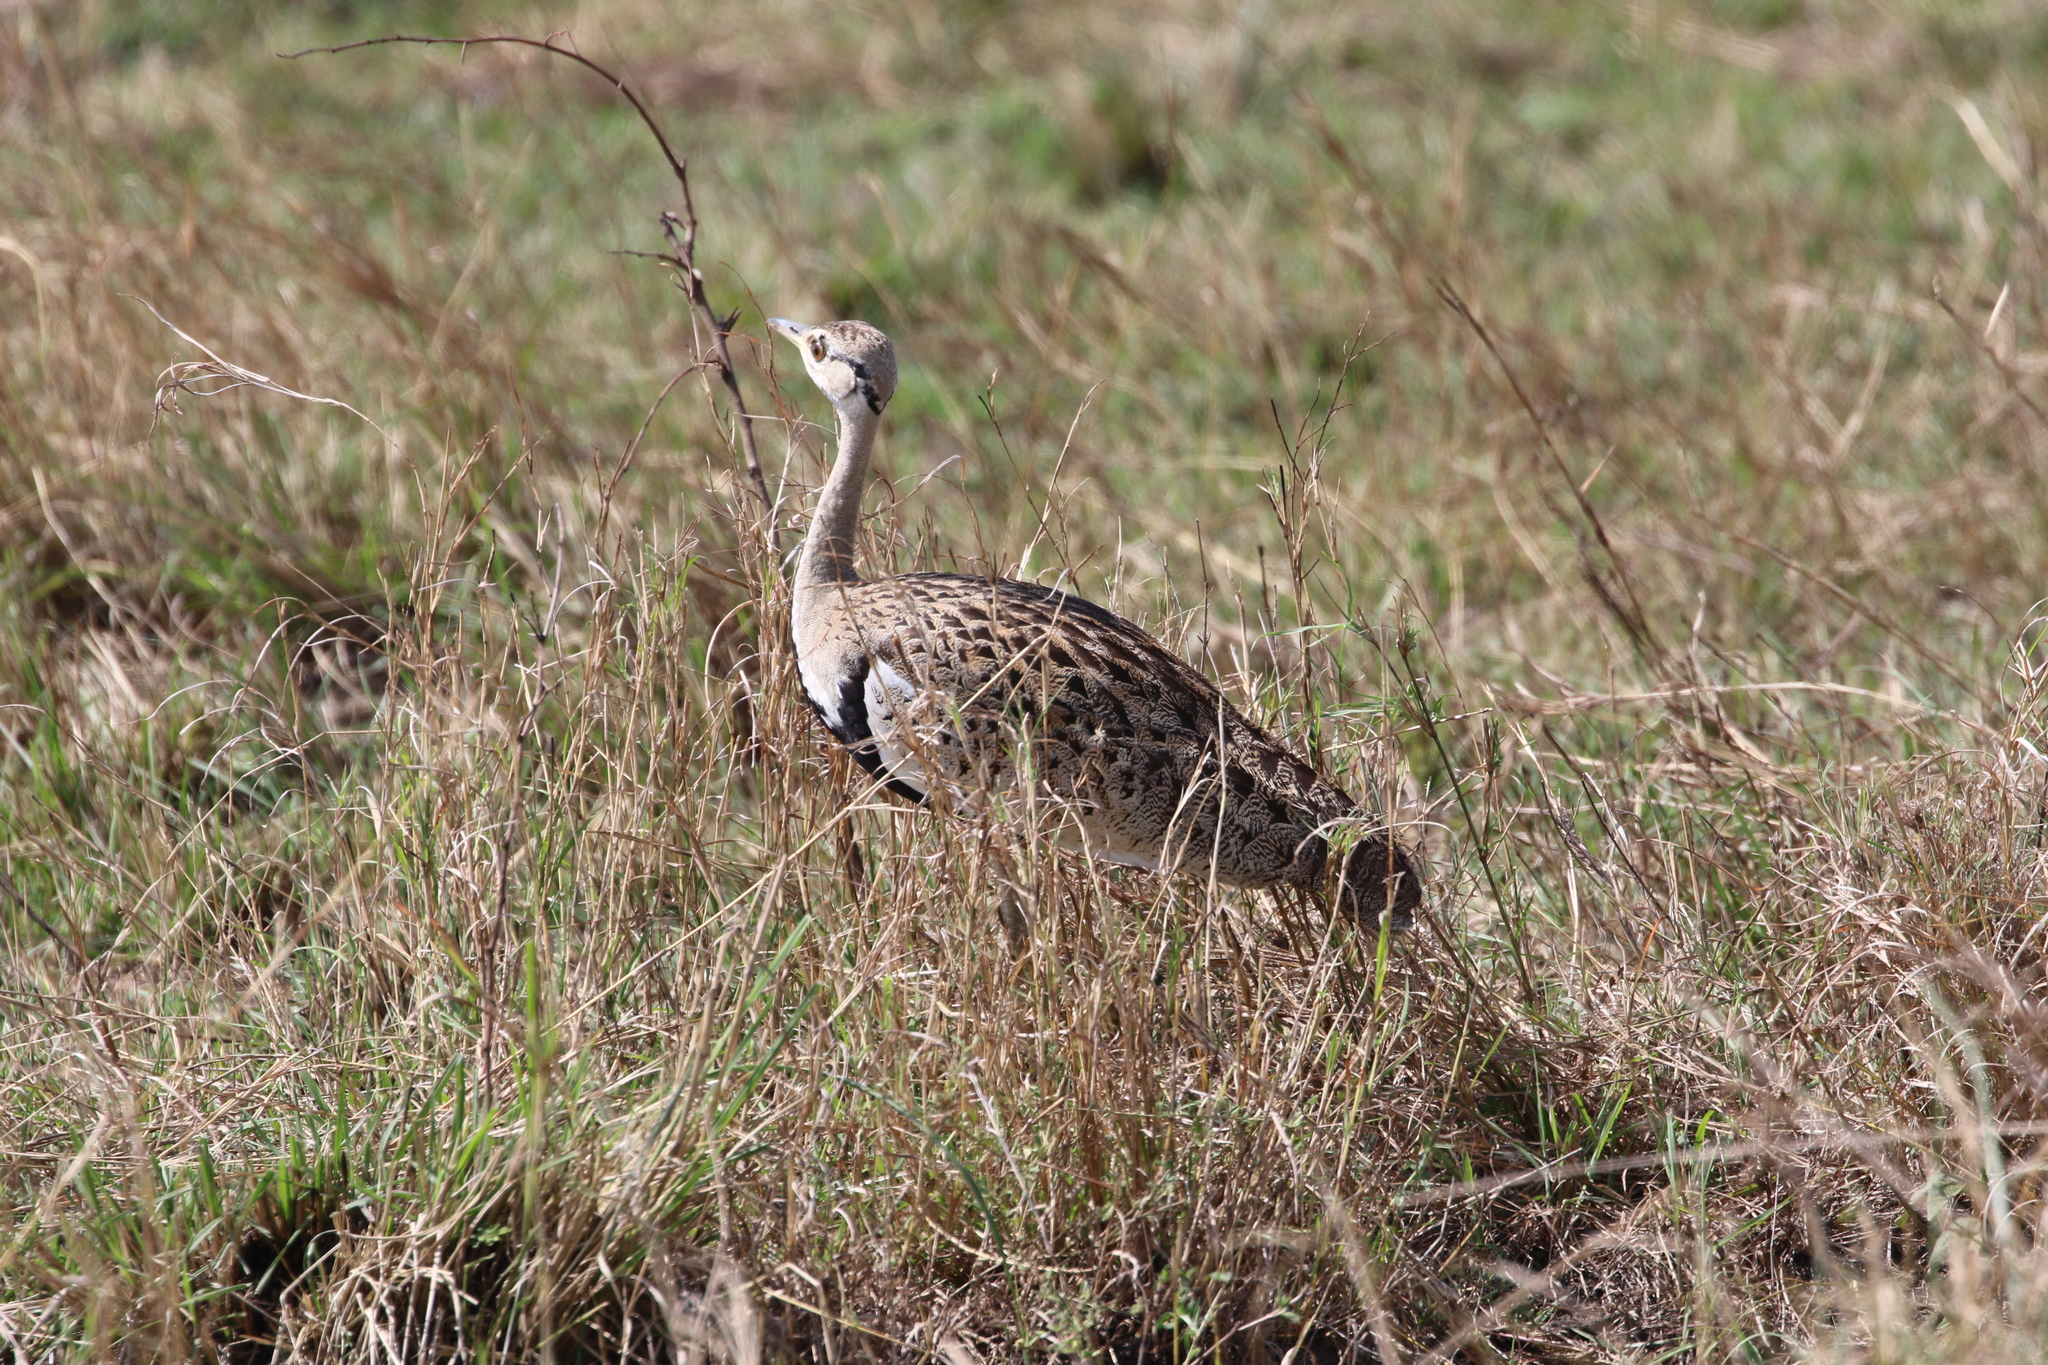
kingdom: Animalia
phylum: Chordata
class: Aves
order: Otidiformes
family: Otididae
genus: Lissotis
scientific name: Lissotis melanogaster
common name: Black-bellied bustard
